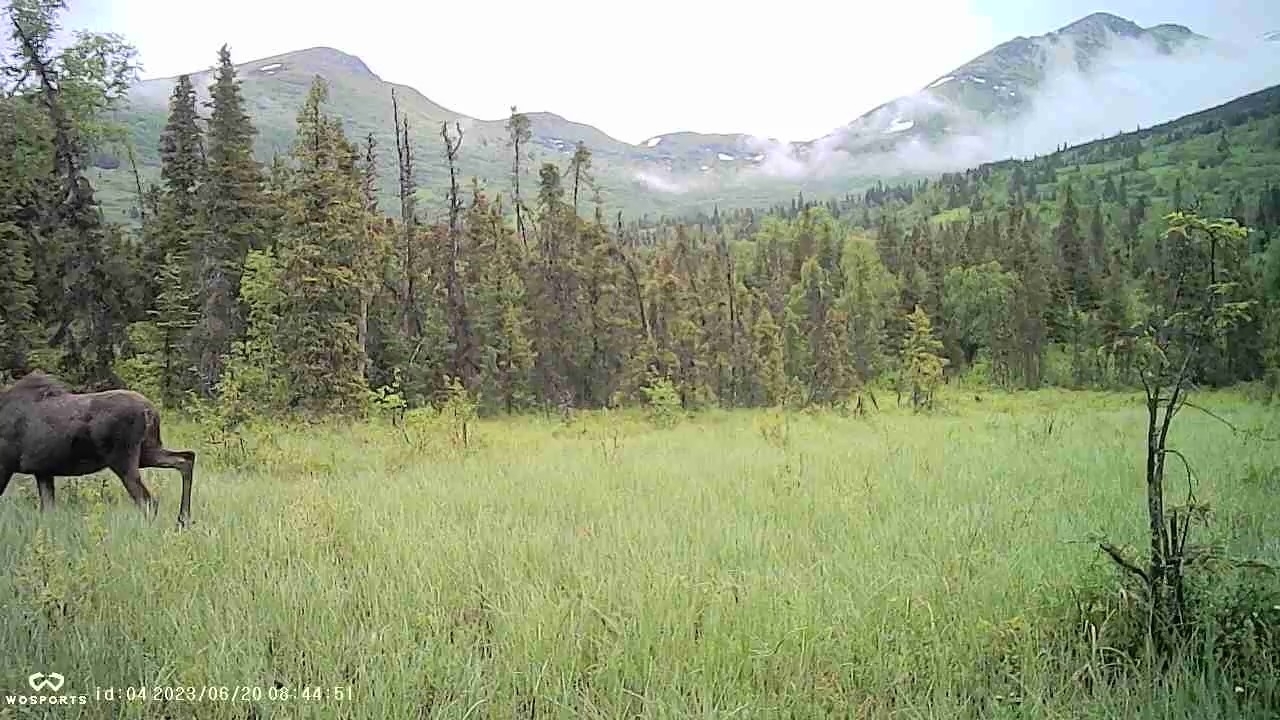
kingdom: Animalia
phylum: Chordata
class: Mammalia
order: Artiodactyla
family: Cervidae
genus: Alces
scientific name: Alces alces
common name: Moose
